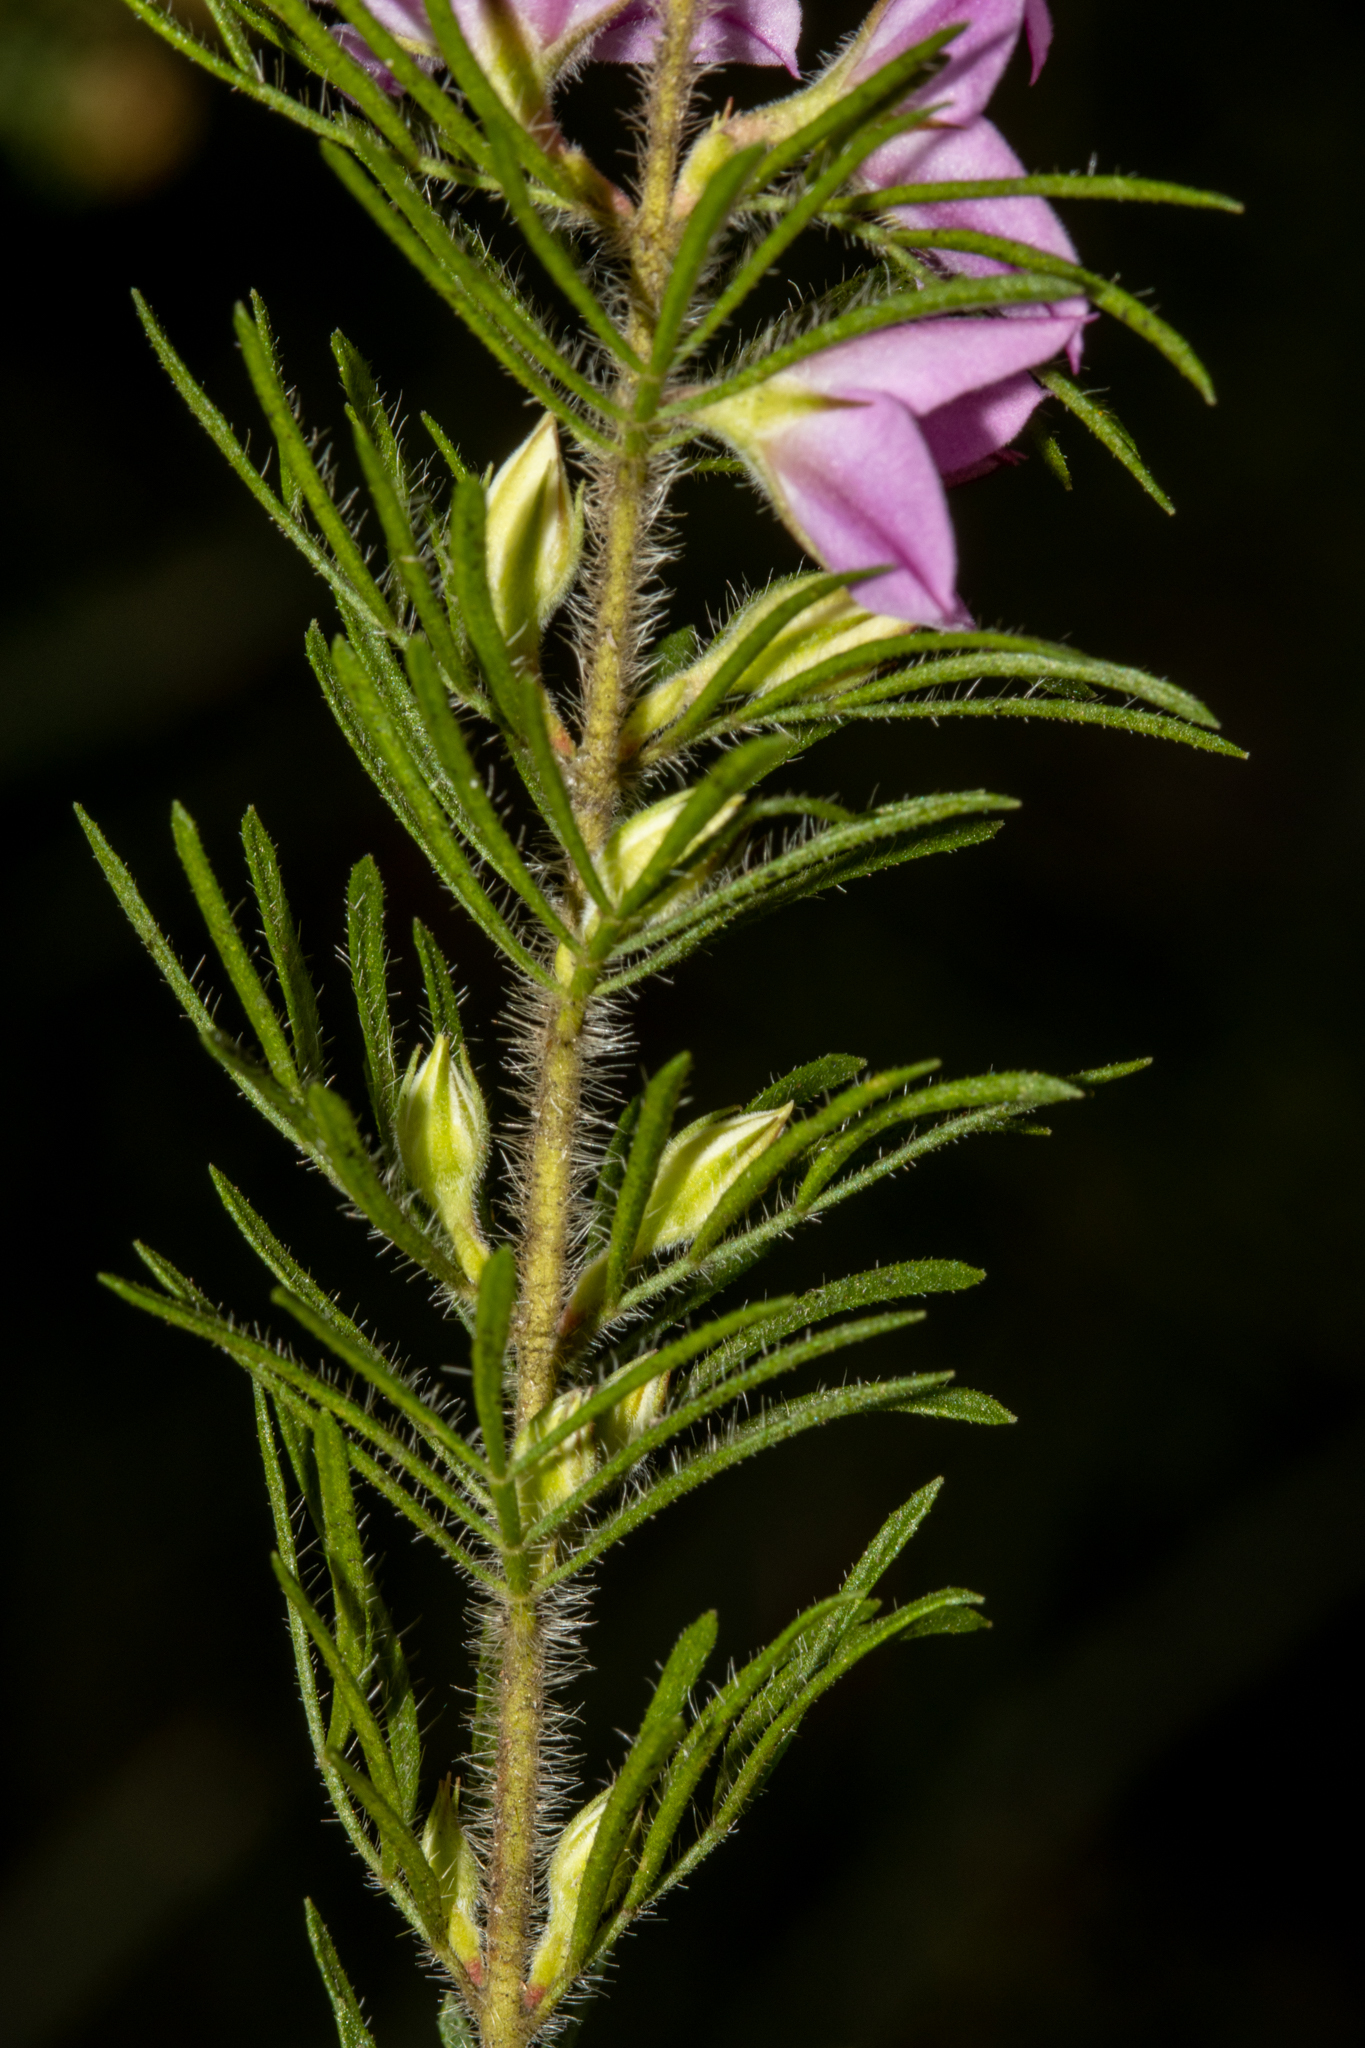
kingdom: Plantae
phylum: Tracheophyta
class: Magnoliopsida
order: Sapindales
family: Rutaceae
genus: Boronia
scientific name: Boronia stricta
